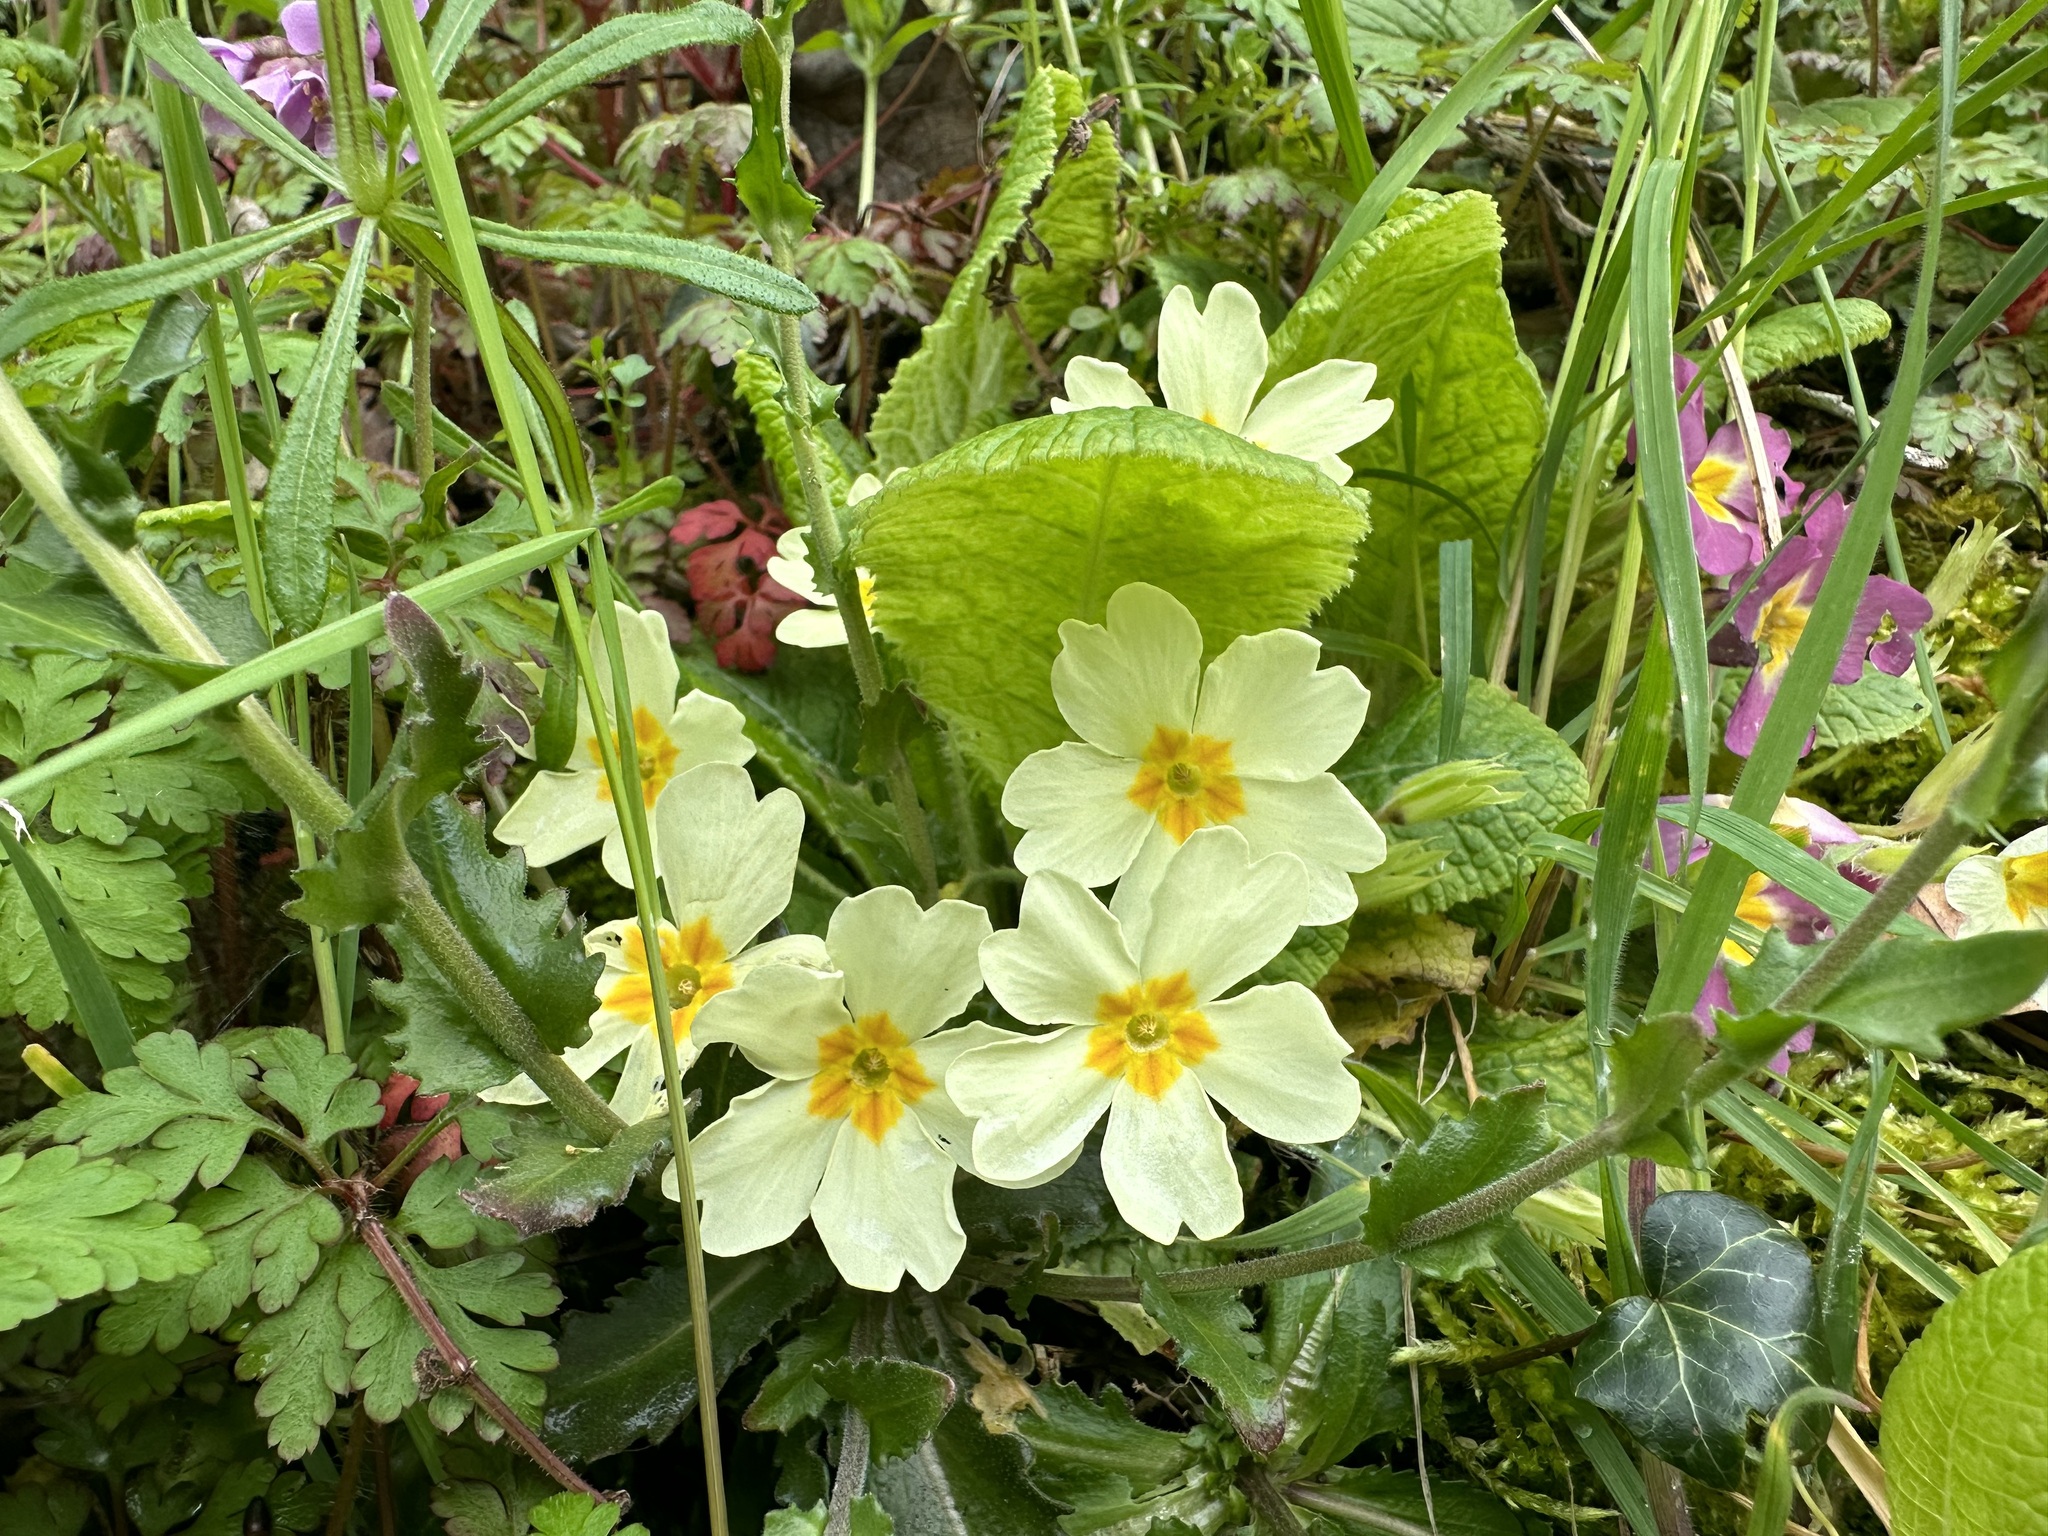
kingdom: Plantae
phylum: Tracheophyta
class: Magnoliopsida
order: Ericales
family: Primulaceae
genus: Primula
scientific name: Primula vulgaris
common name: Primrose
